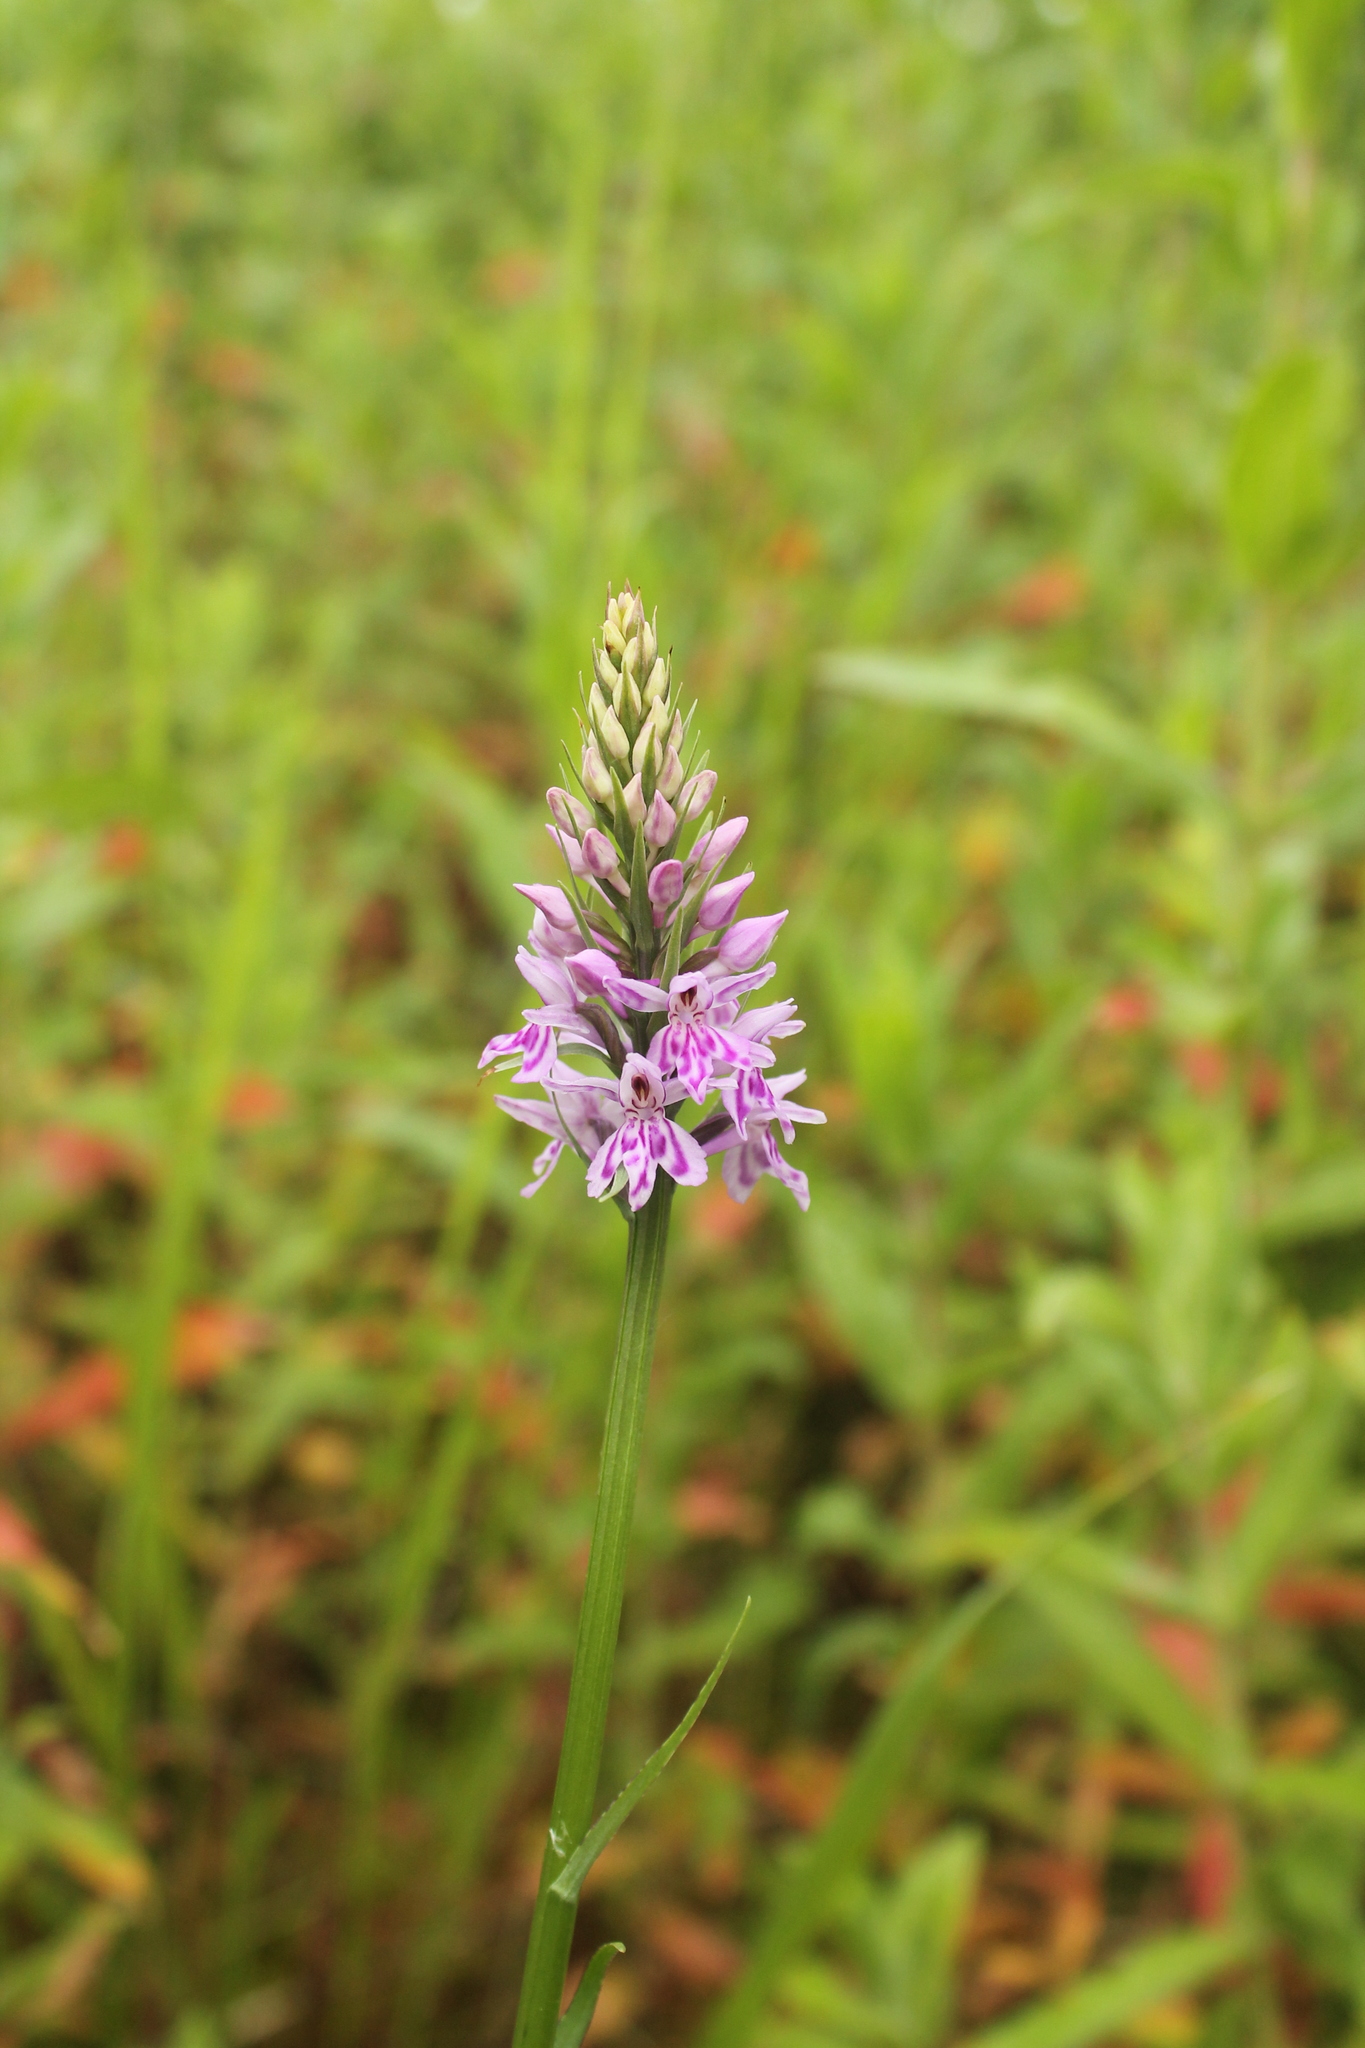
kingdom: Plantae
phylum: Tracheophyta
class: Liliopsida
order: Asparagales
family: Orchidaceae
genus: Dactylorhiza
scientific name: Dactylorhiza maculata
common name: Heath spotted-orchid
